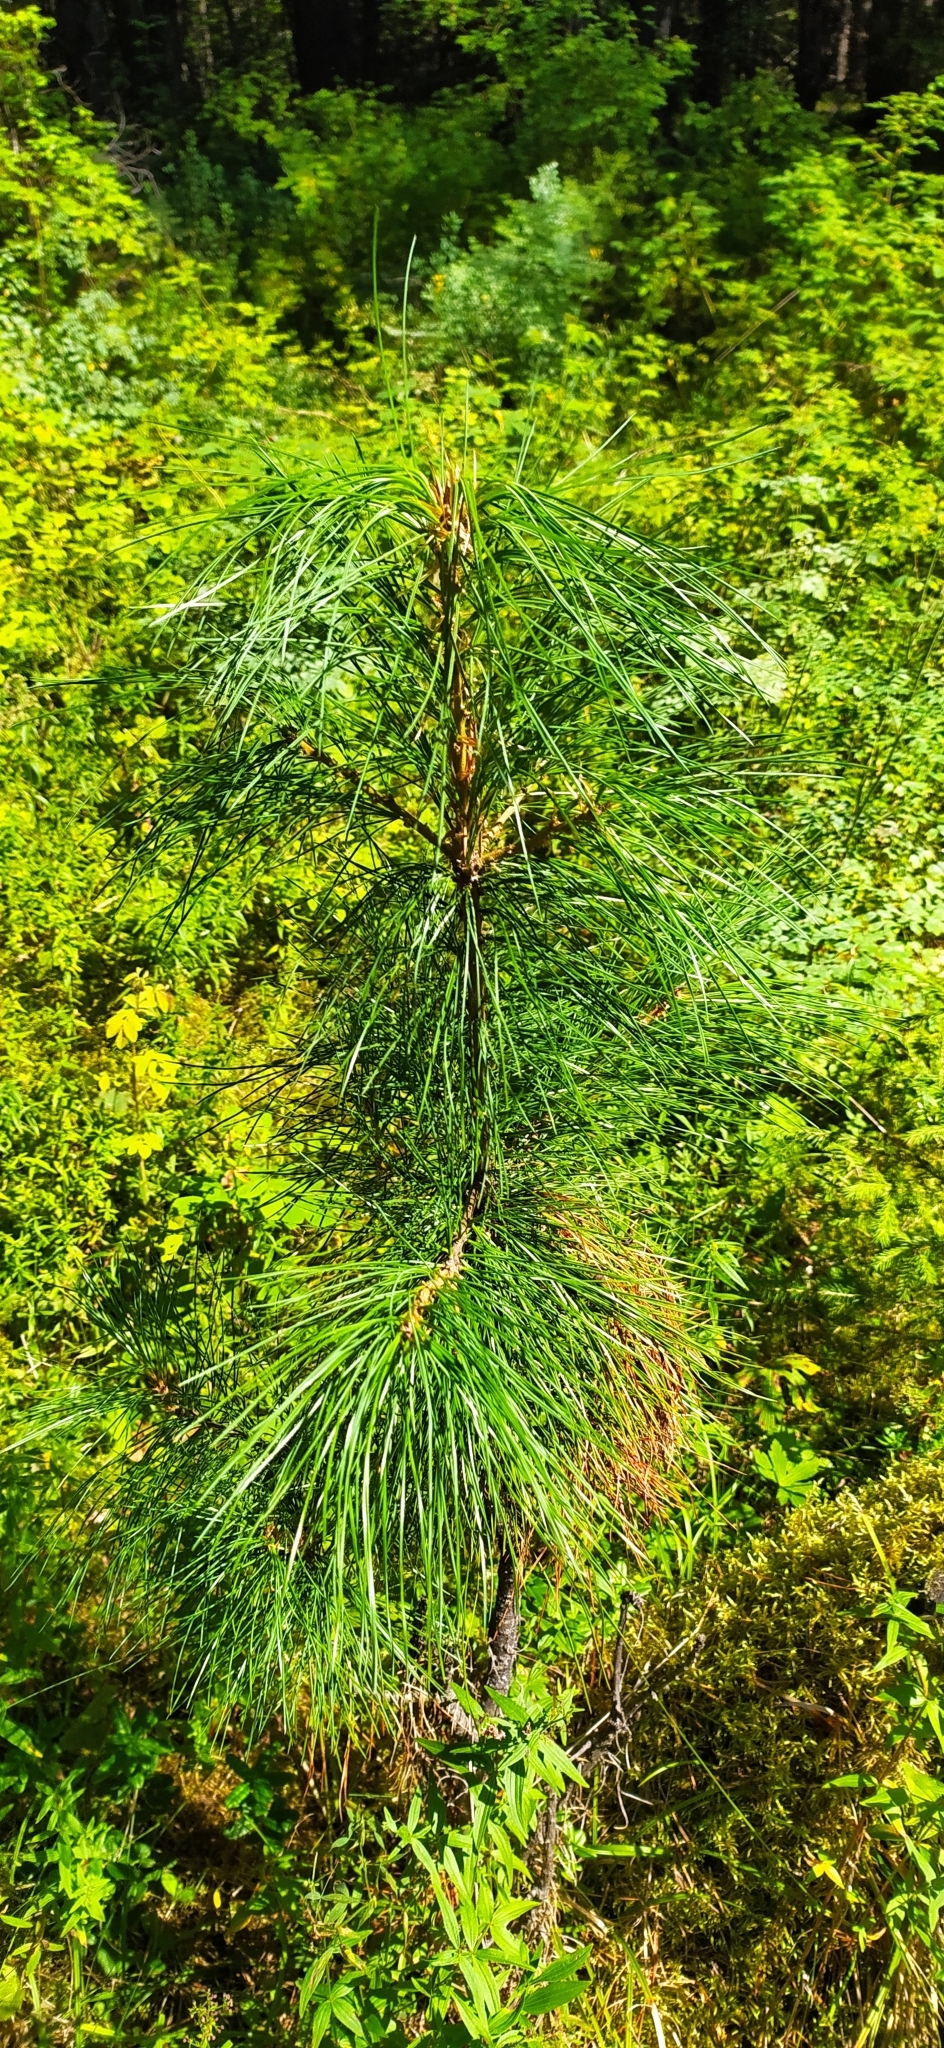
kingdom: Plantae
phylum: Tracheophyta
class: Pinopsida
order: Pinales
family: Pinaceae
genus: Pinus
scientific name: Pinus sibirica
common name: Siberian pine
